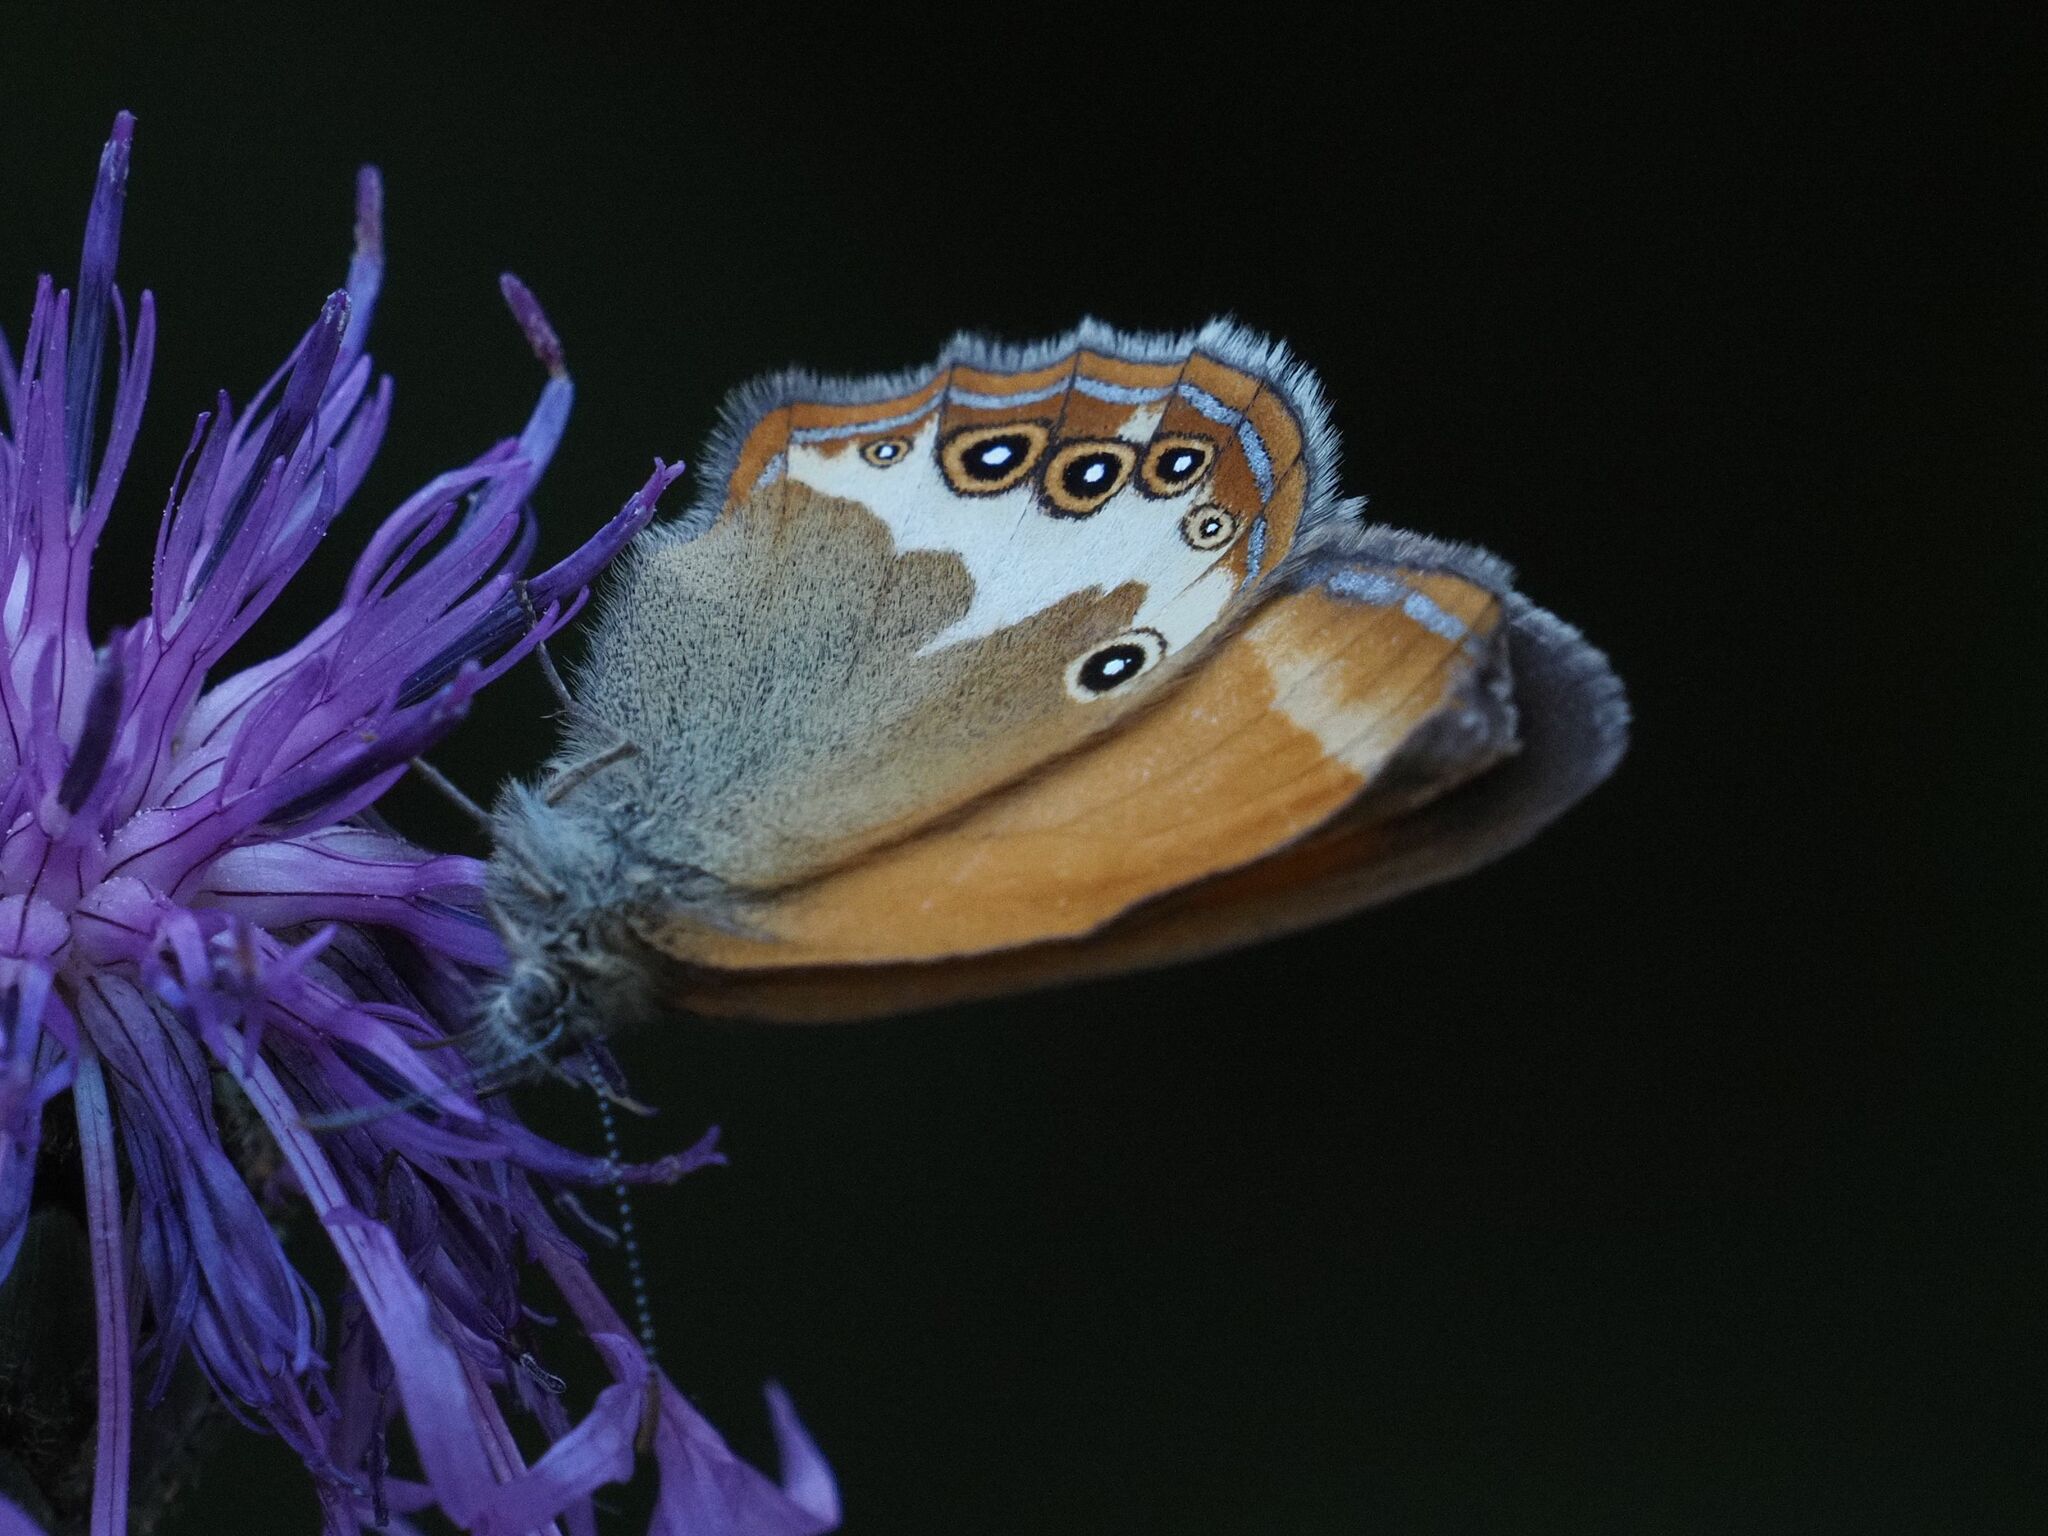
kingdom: Animalia
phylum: Arthropoda
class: Insecta
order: Lepidoptera
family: Nymphalidae
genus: Coenonympha
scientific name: Coenonympha arcania
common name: Pearly heath
